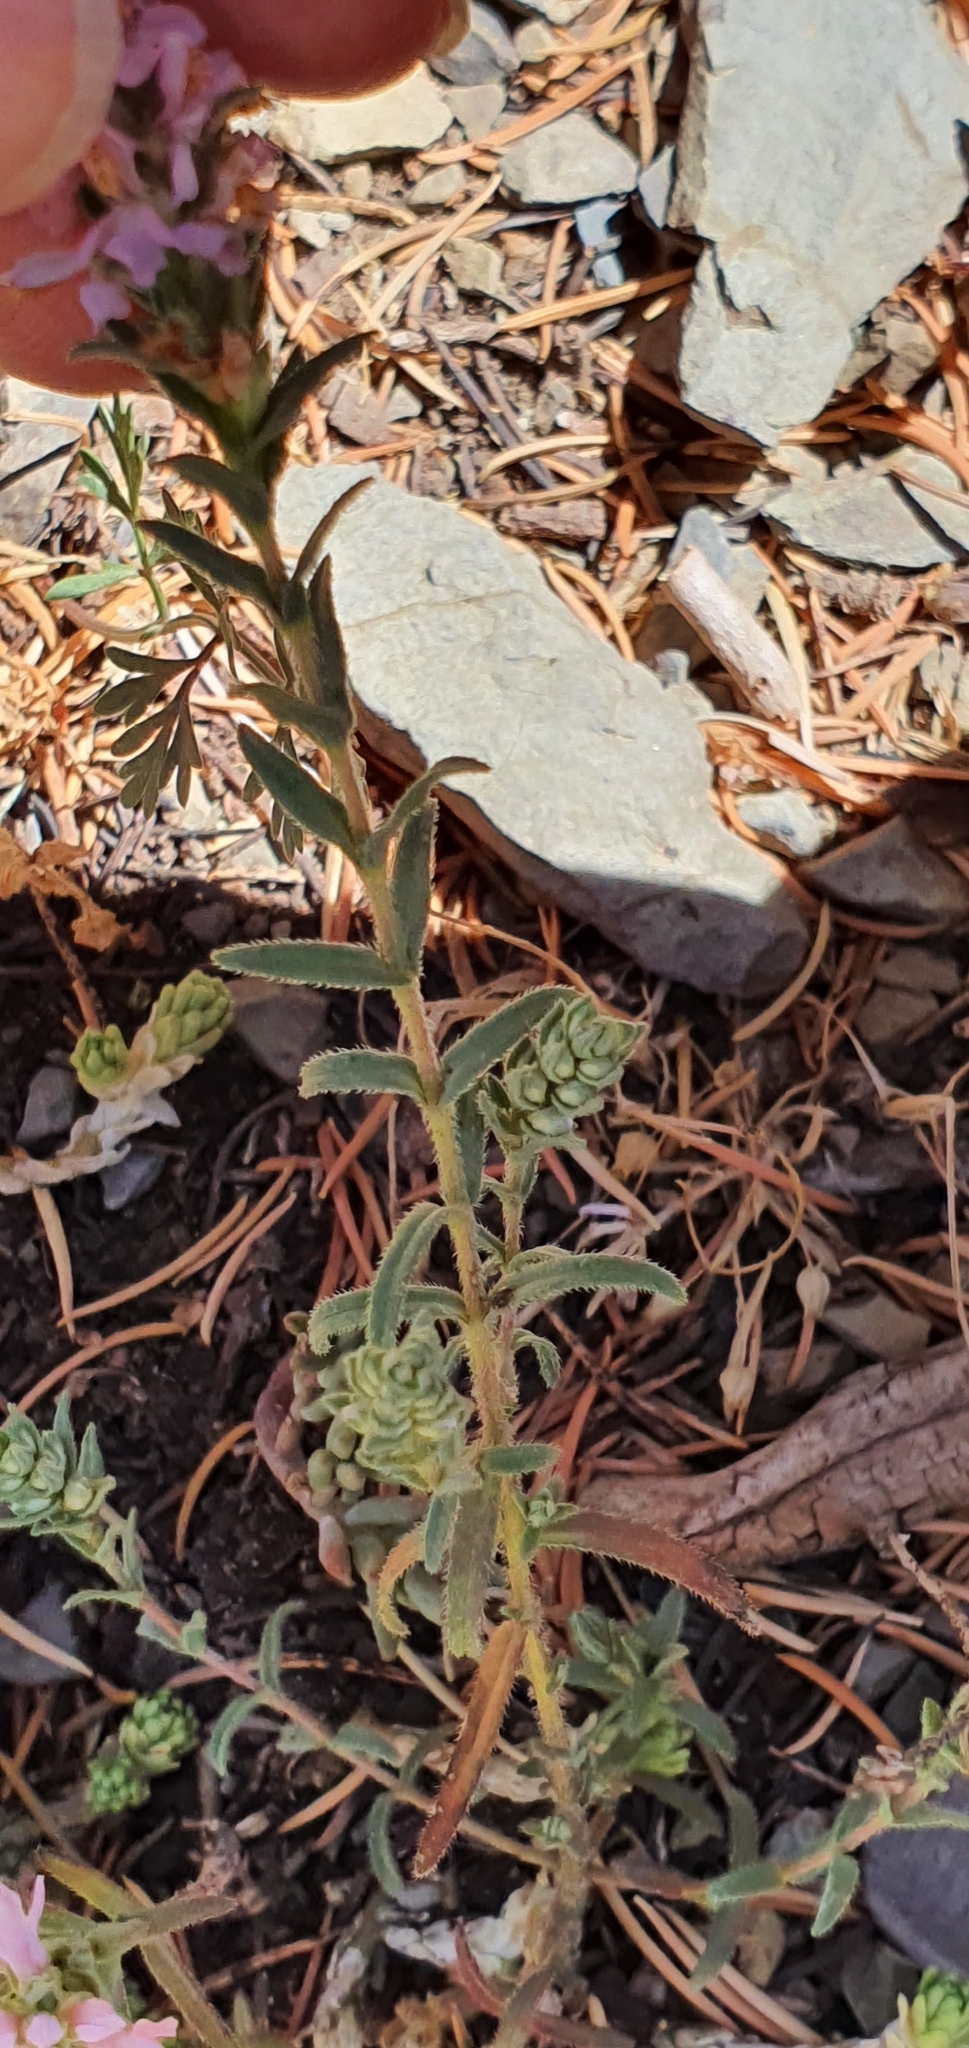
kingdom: Plantae
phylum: Tracheophyta
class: Magnoliopsida
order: Lamiales
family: Orobanchaceae
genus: Odontites
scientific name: Odontites violaceus
